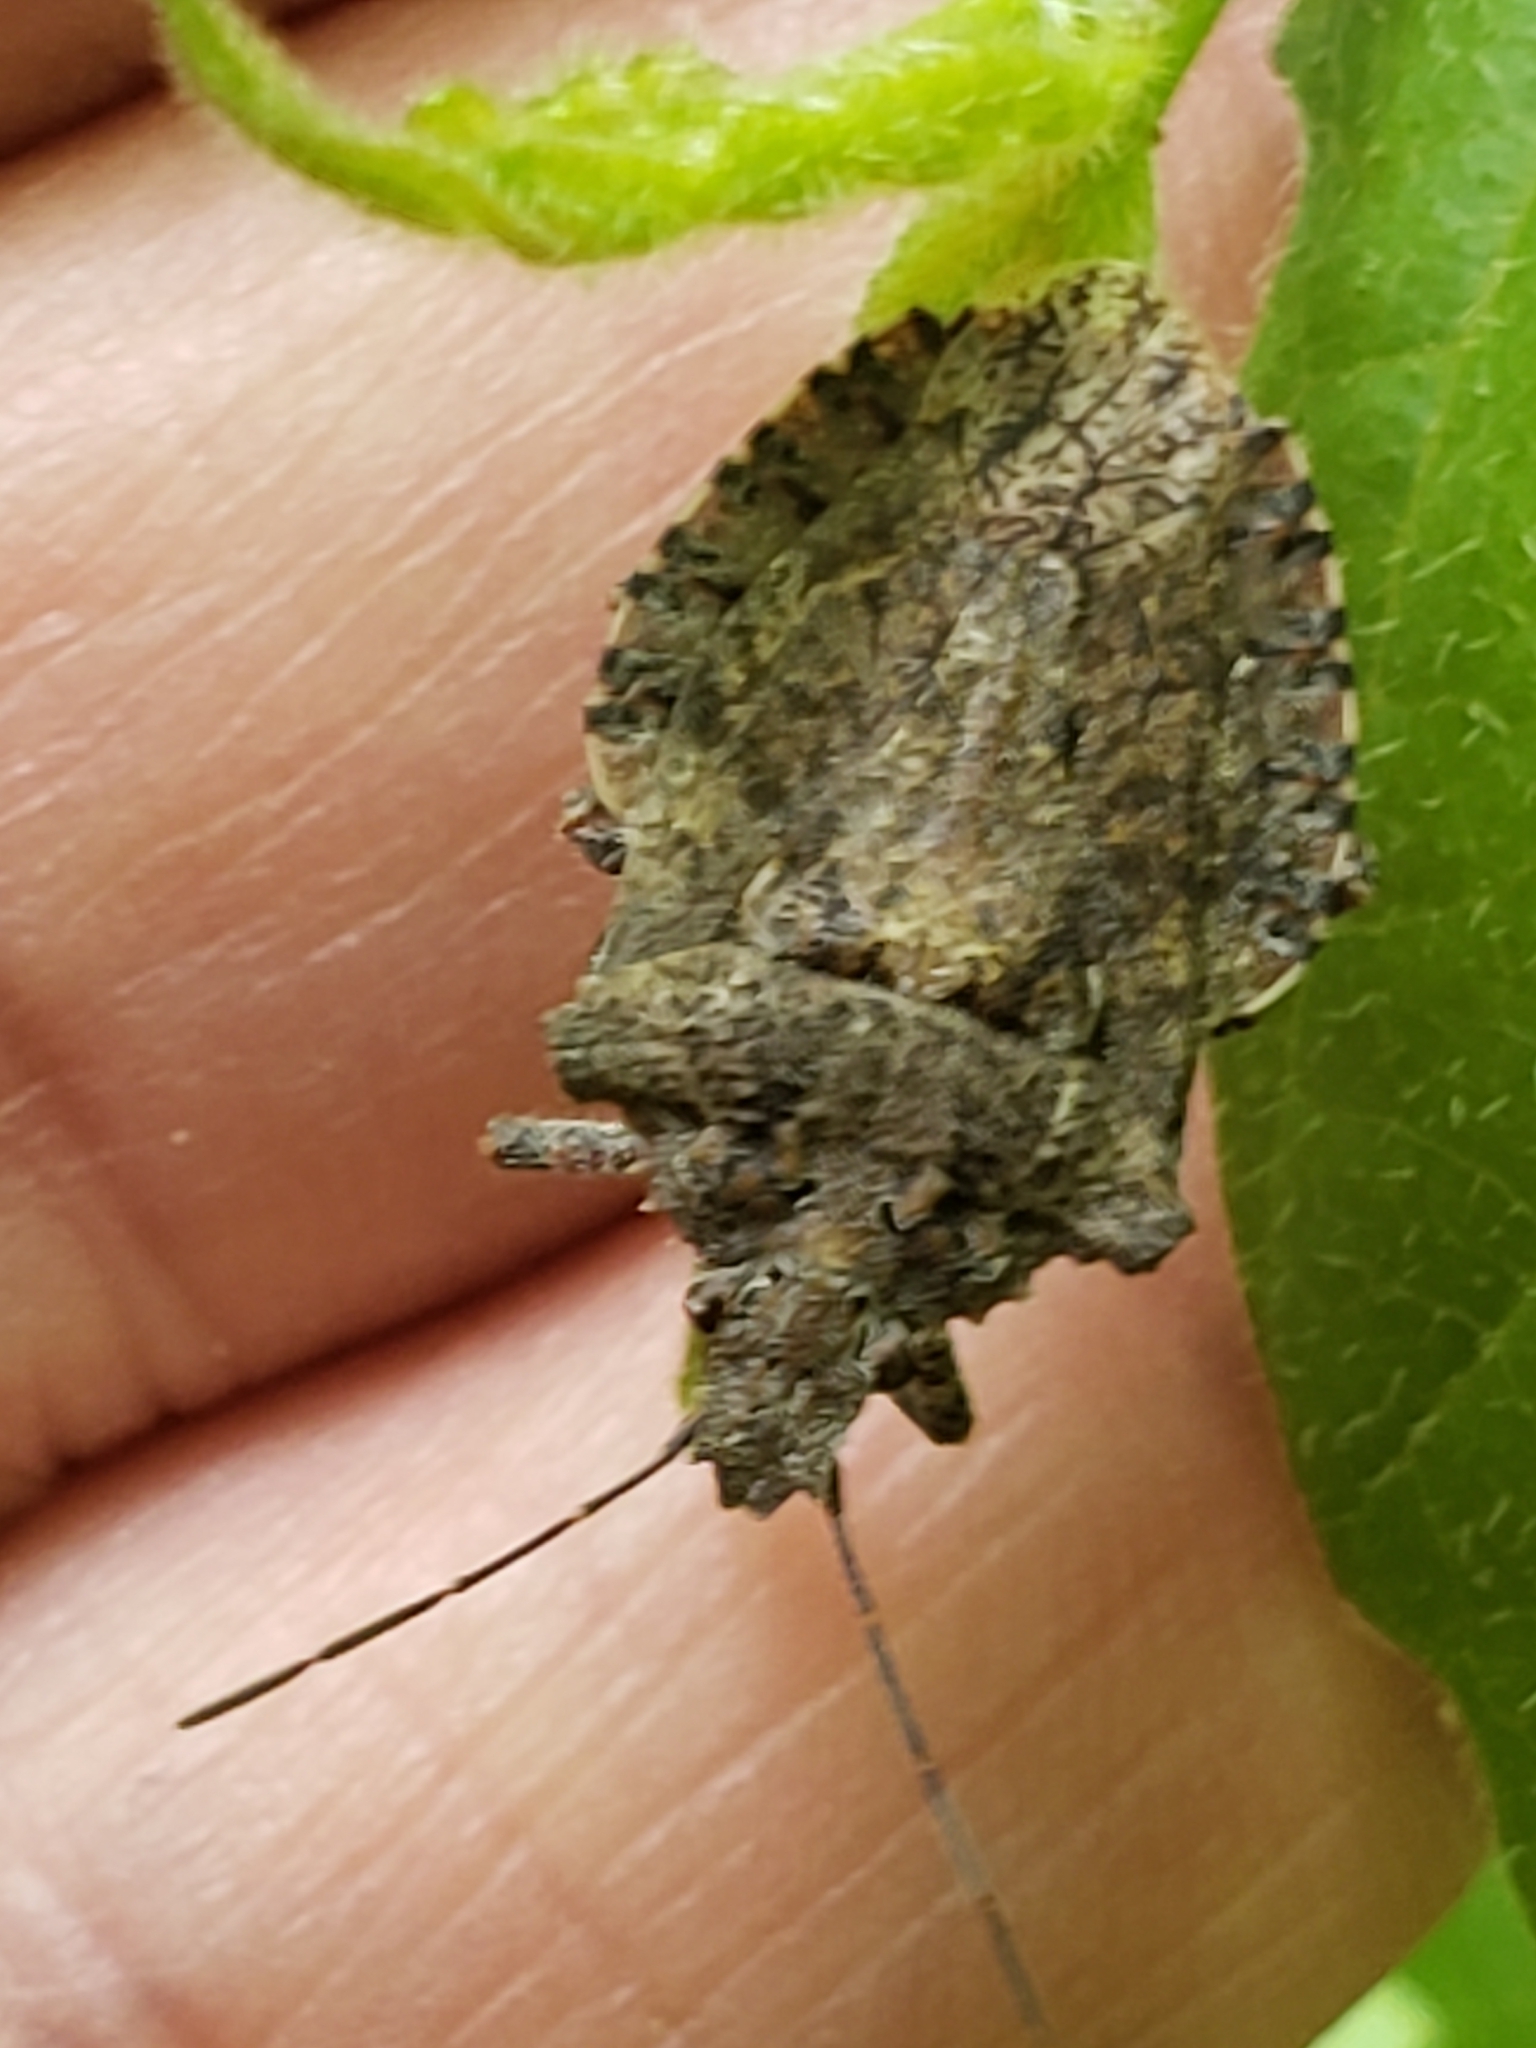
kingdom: Animalia
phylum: Arthropoda
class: Insecta
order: Hemiptera
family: Pentatomidae
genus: Brochymena
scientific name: Brochymena arborea
